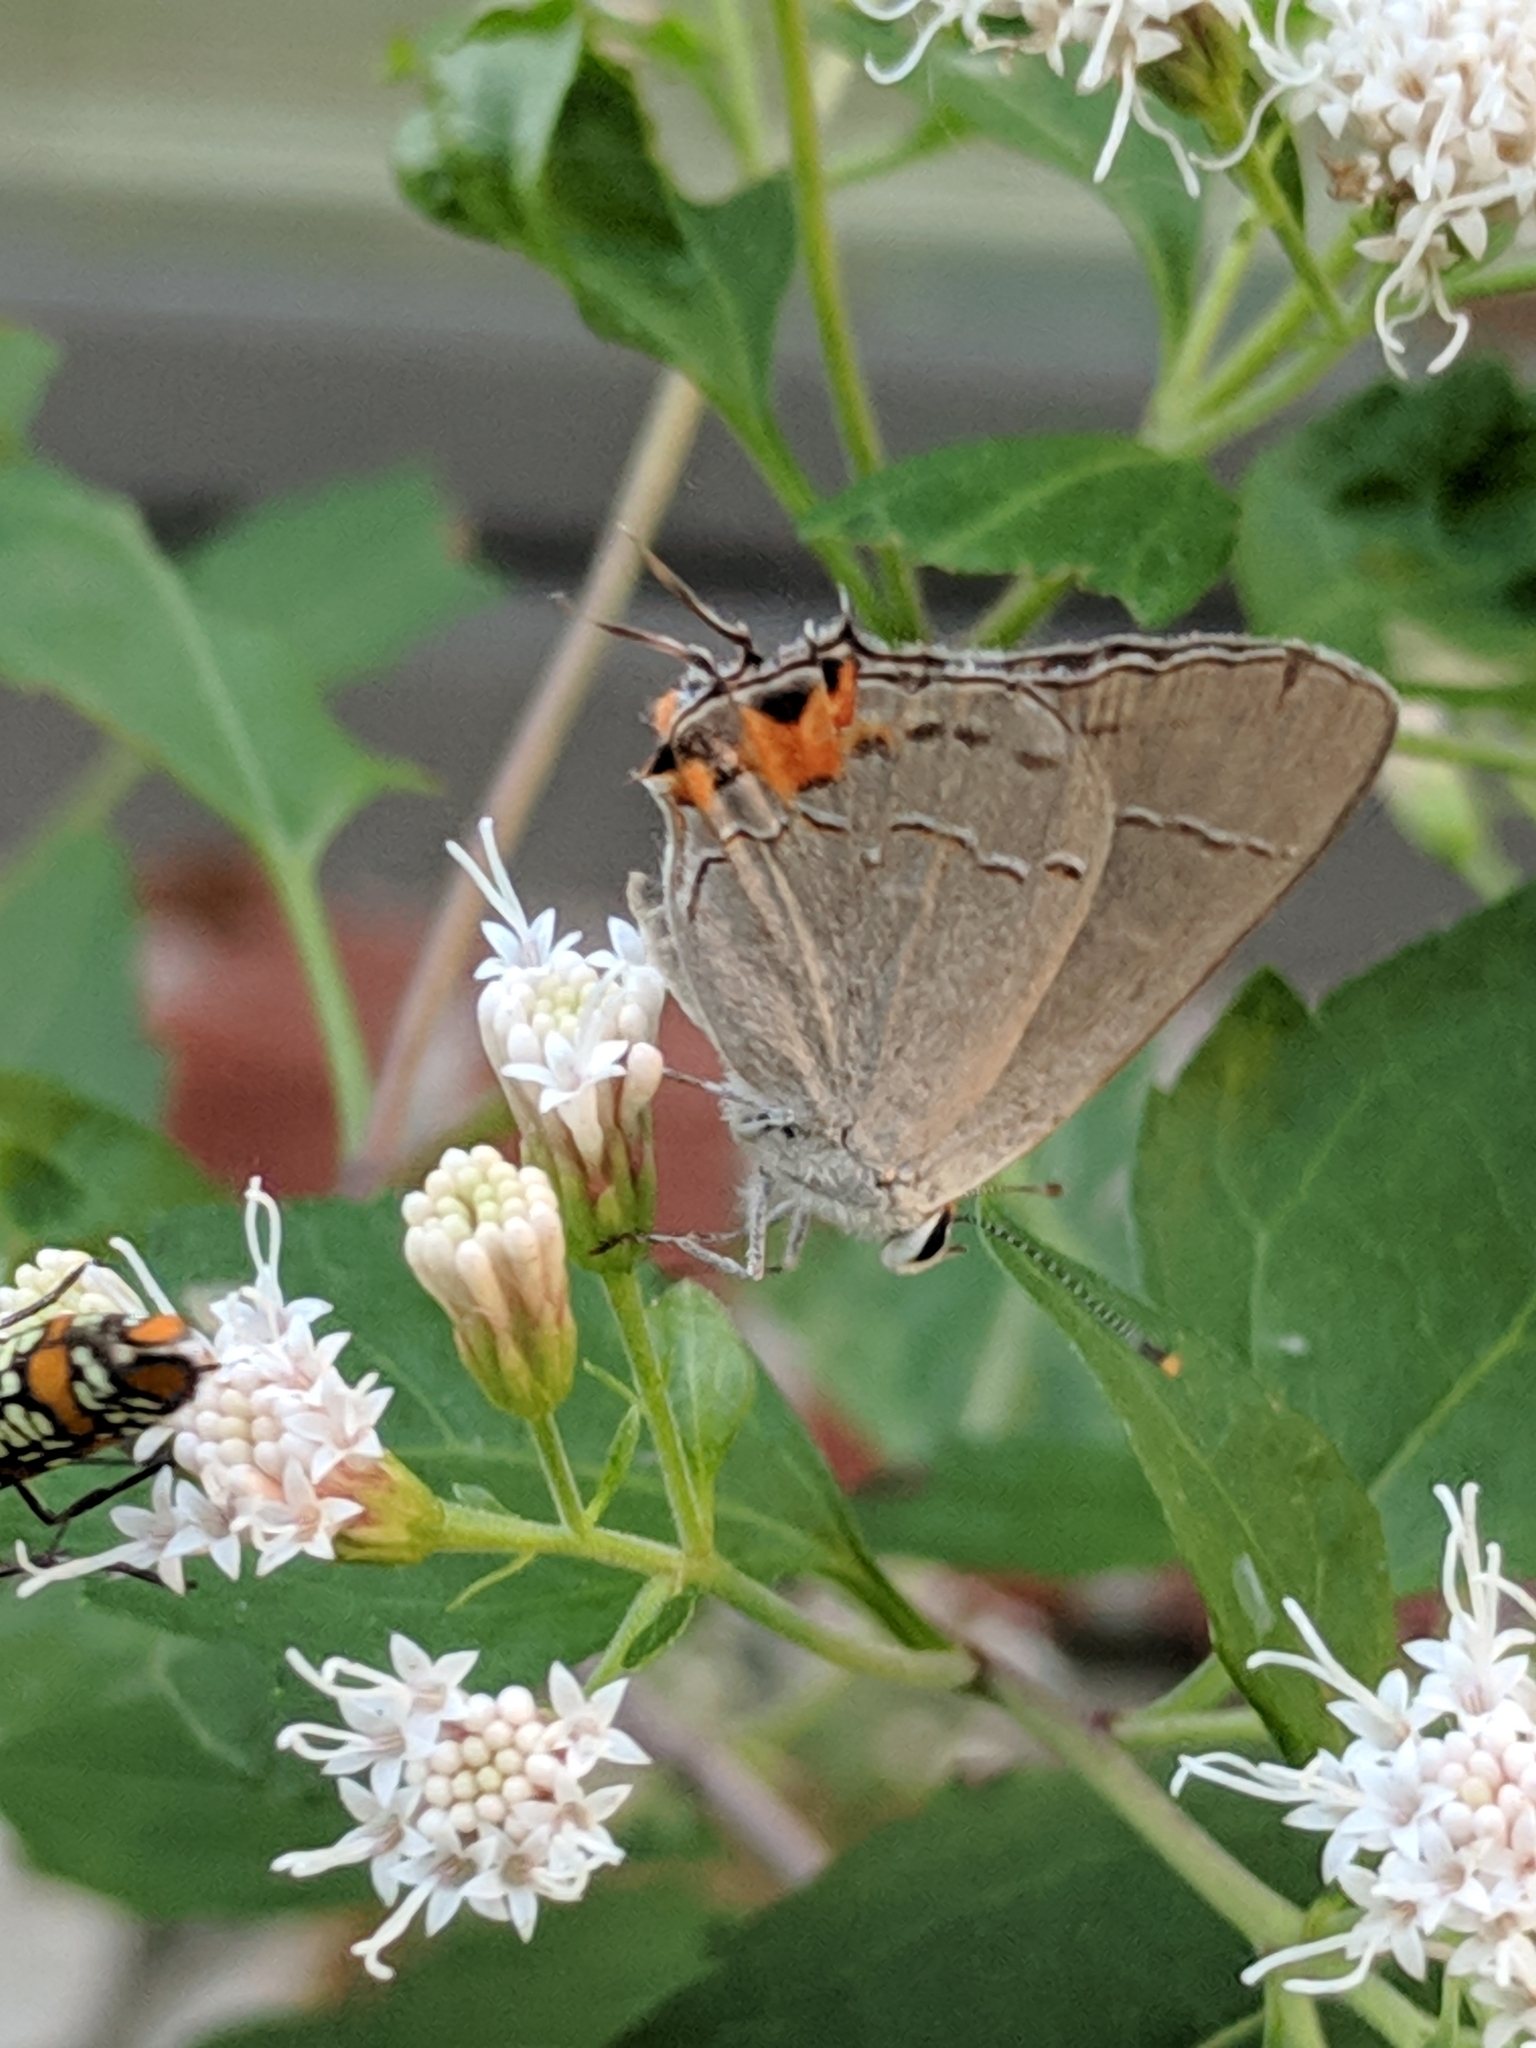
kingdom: Animalia
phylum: Arthropoda
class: Insecta
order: Lepidoptera
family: Lycaenidae
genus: Strymon
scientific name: Strymon melinus
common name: Gray hairstreak
